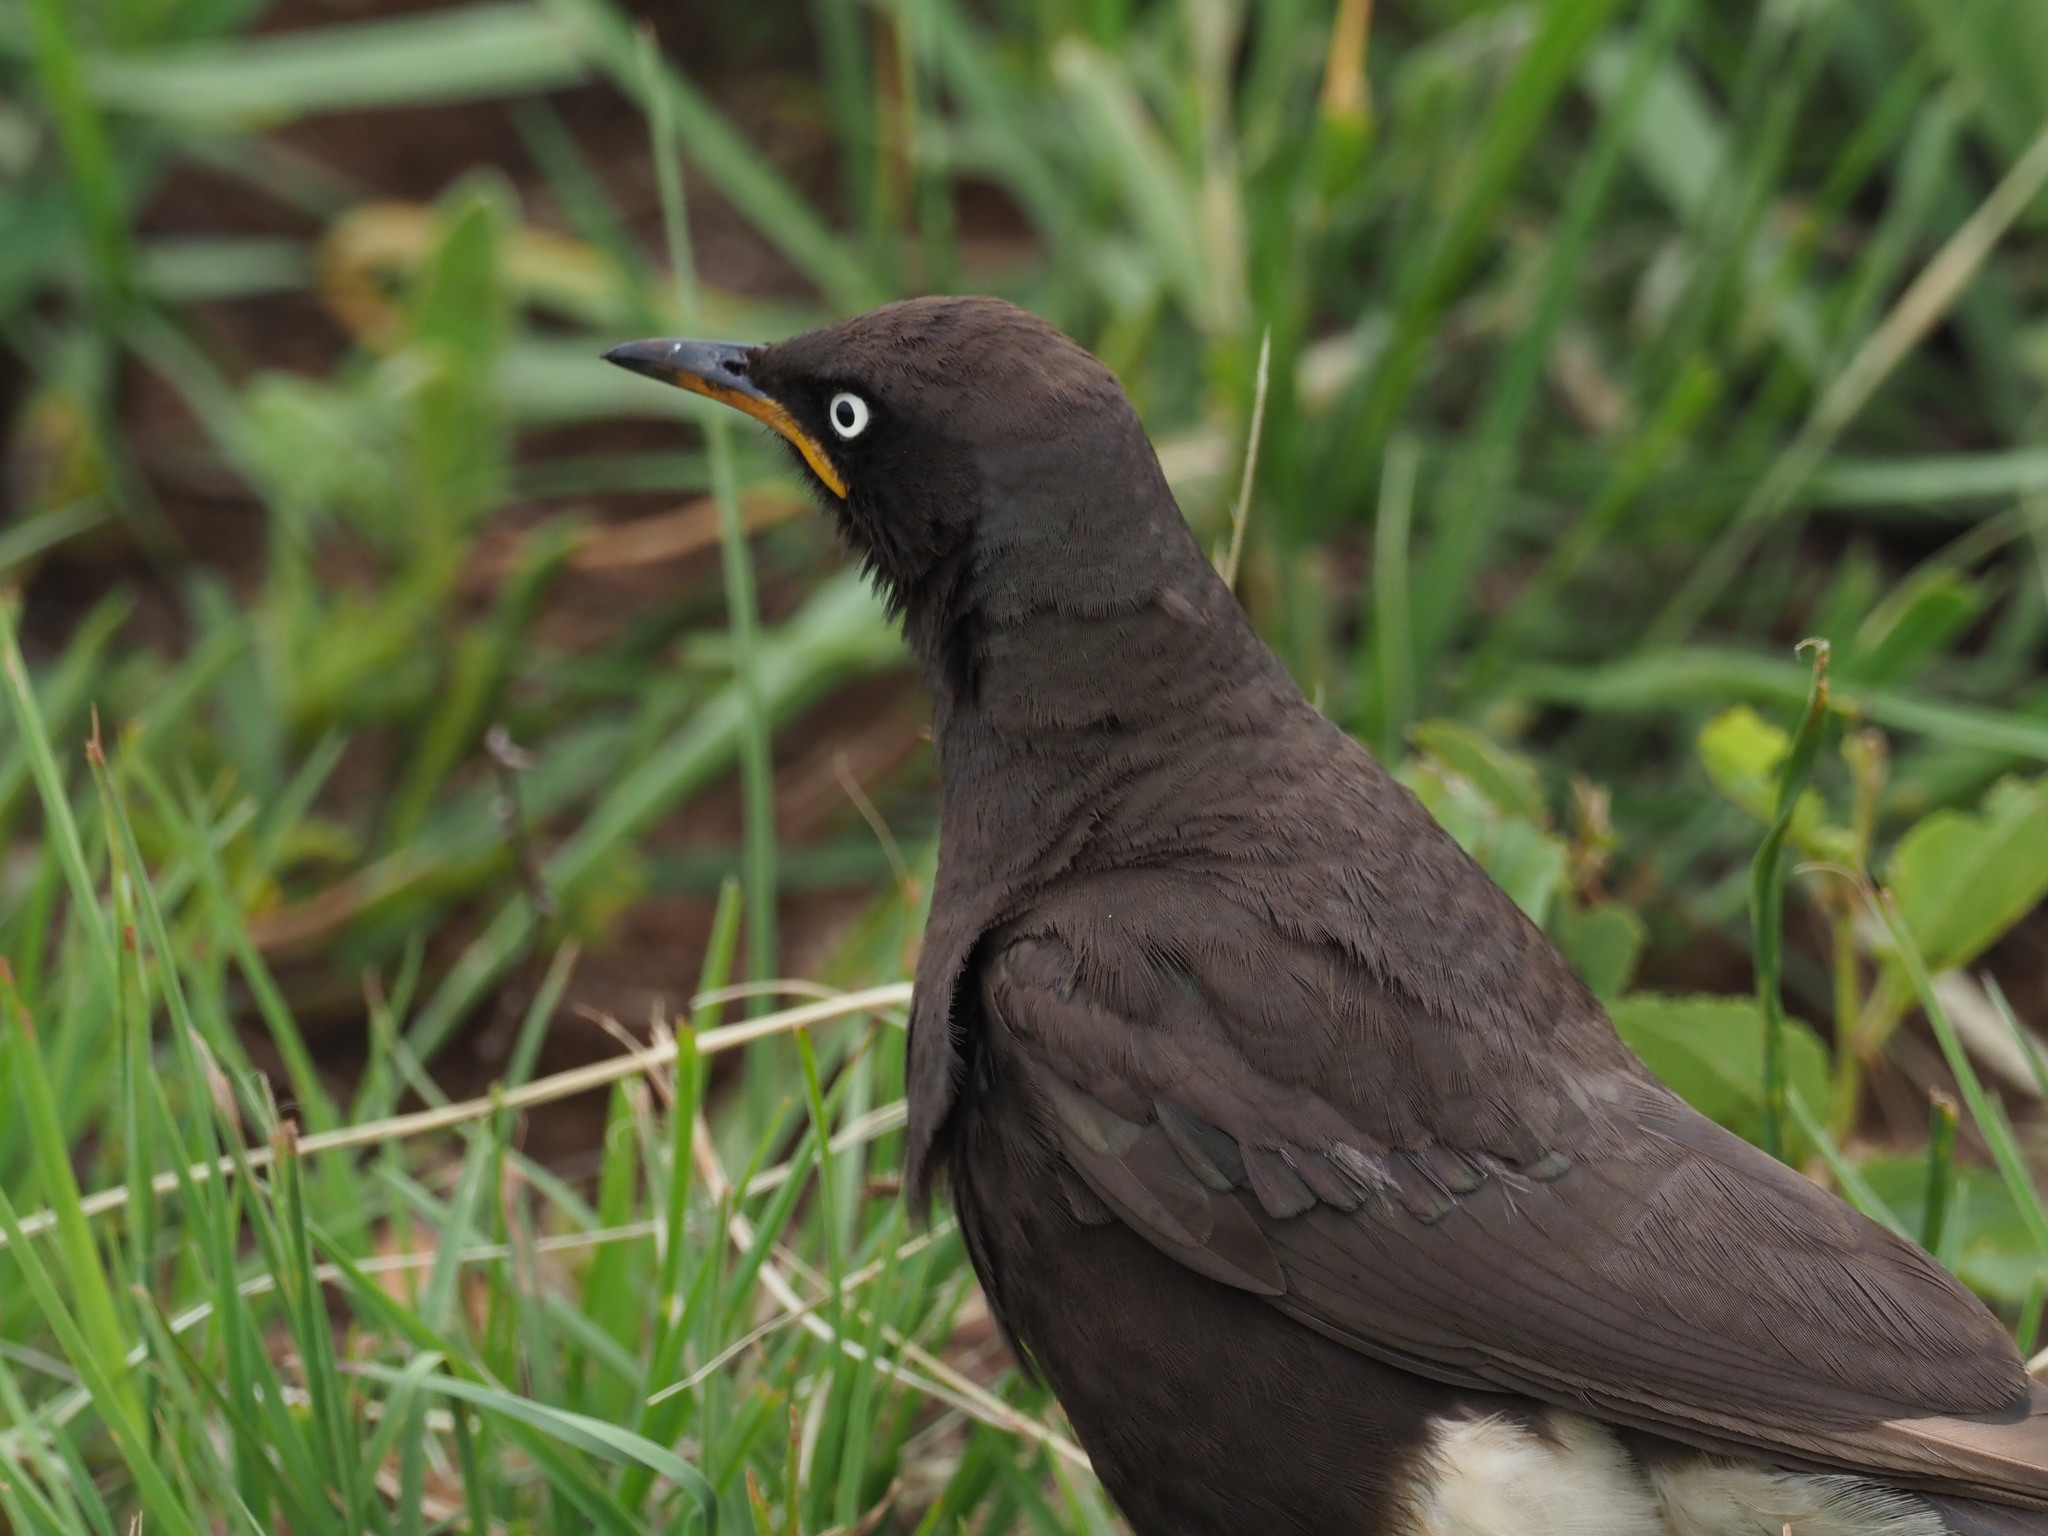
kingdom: Animalia
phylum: Chordata
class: Aves
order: Passeriformes
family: Sturnidae
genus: Lamprotornis
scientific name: Lamprotornis bicolor
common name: Pied starling
